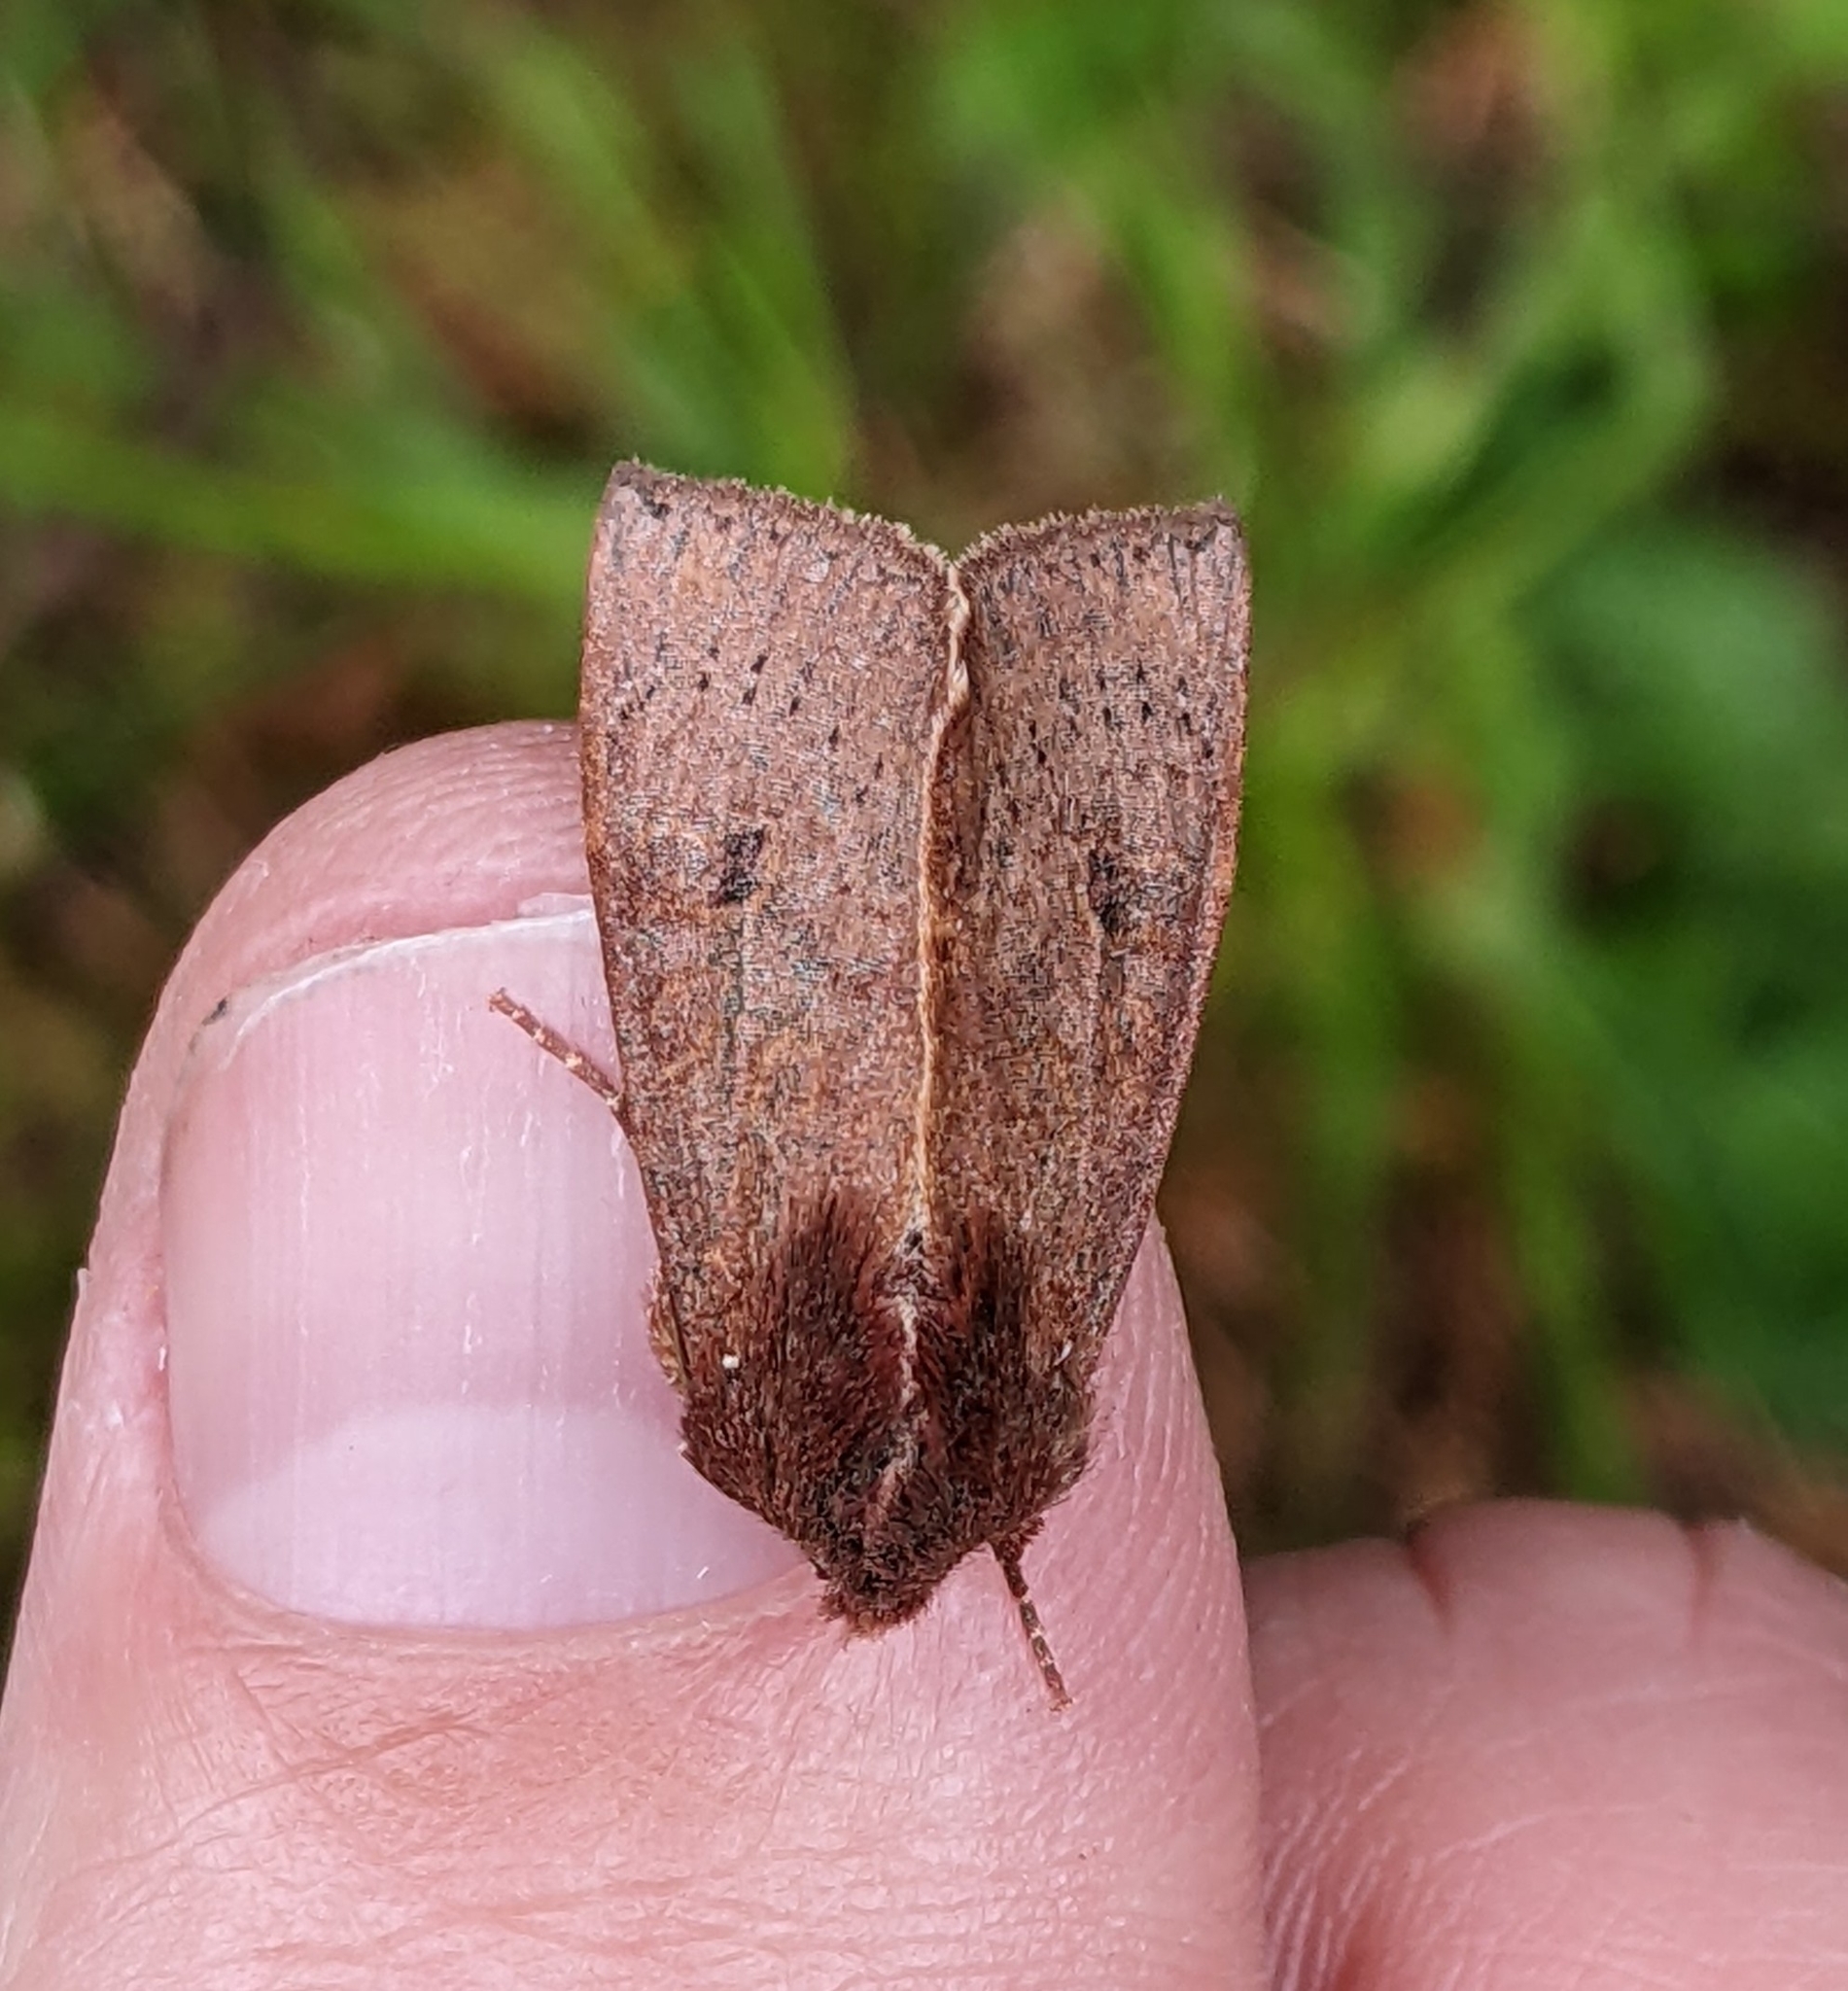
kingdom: Animalia
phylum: Arthropoda
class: Insecta
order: Lepidoptera
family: Noctuidae
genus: Orthosia
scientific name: Orthosia transparens
